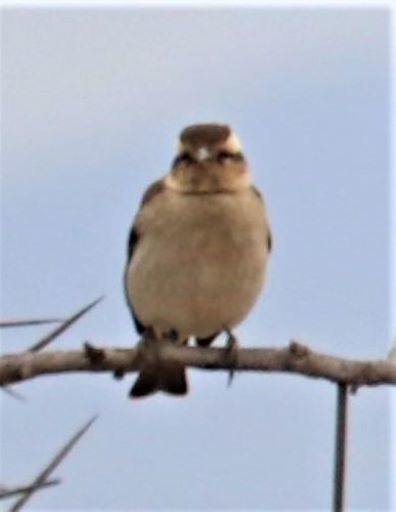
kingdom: Animalia
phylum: Chordata
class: Aves
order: Passeriformes
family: Passeridae
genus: Gymnoris
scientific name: Gymnoris superciliaris
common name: Yellow-throated petronia
